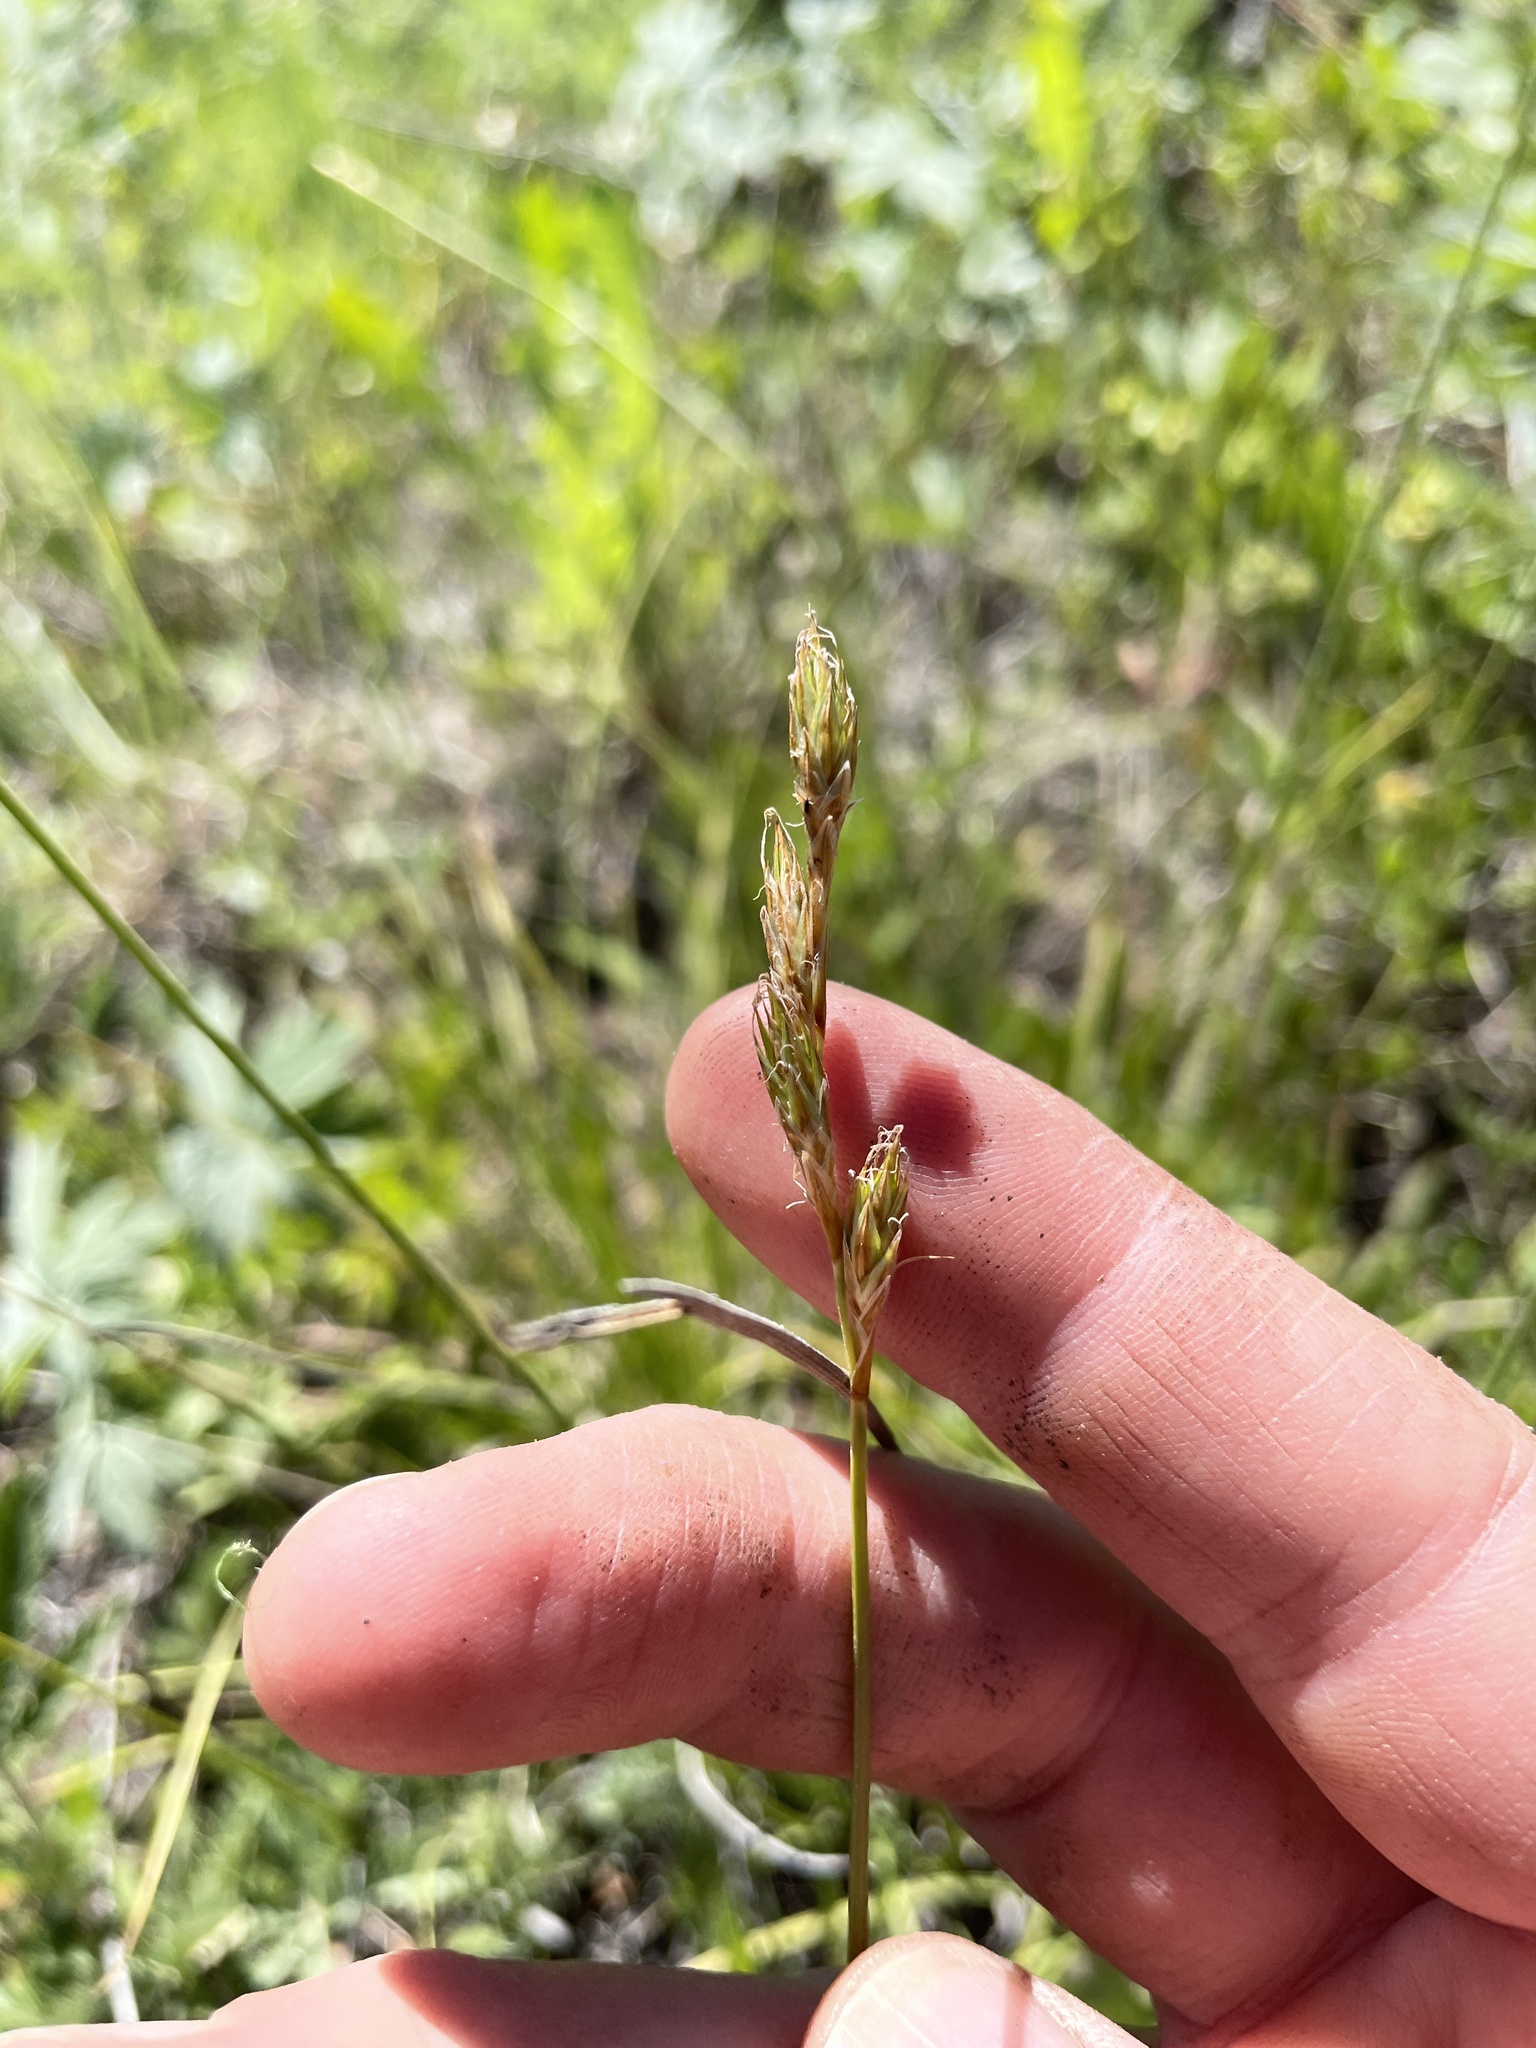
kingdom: Plantae
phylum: Tracheophyta
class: Liliopsida
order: Poales
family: Cyperaceae
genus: Carex
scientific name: Carex petasata
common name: Liddon's sedge
